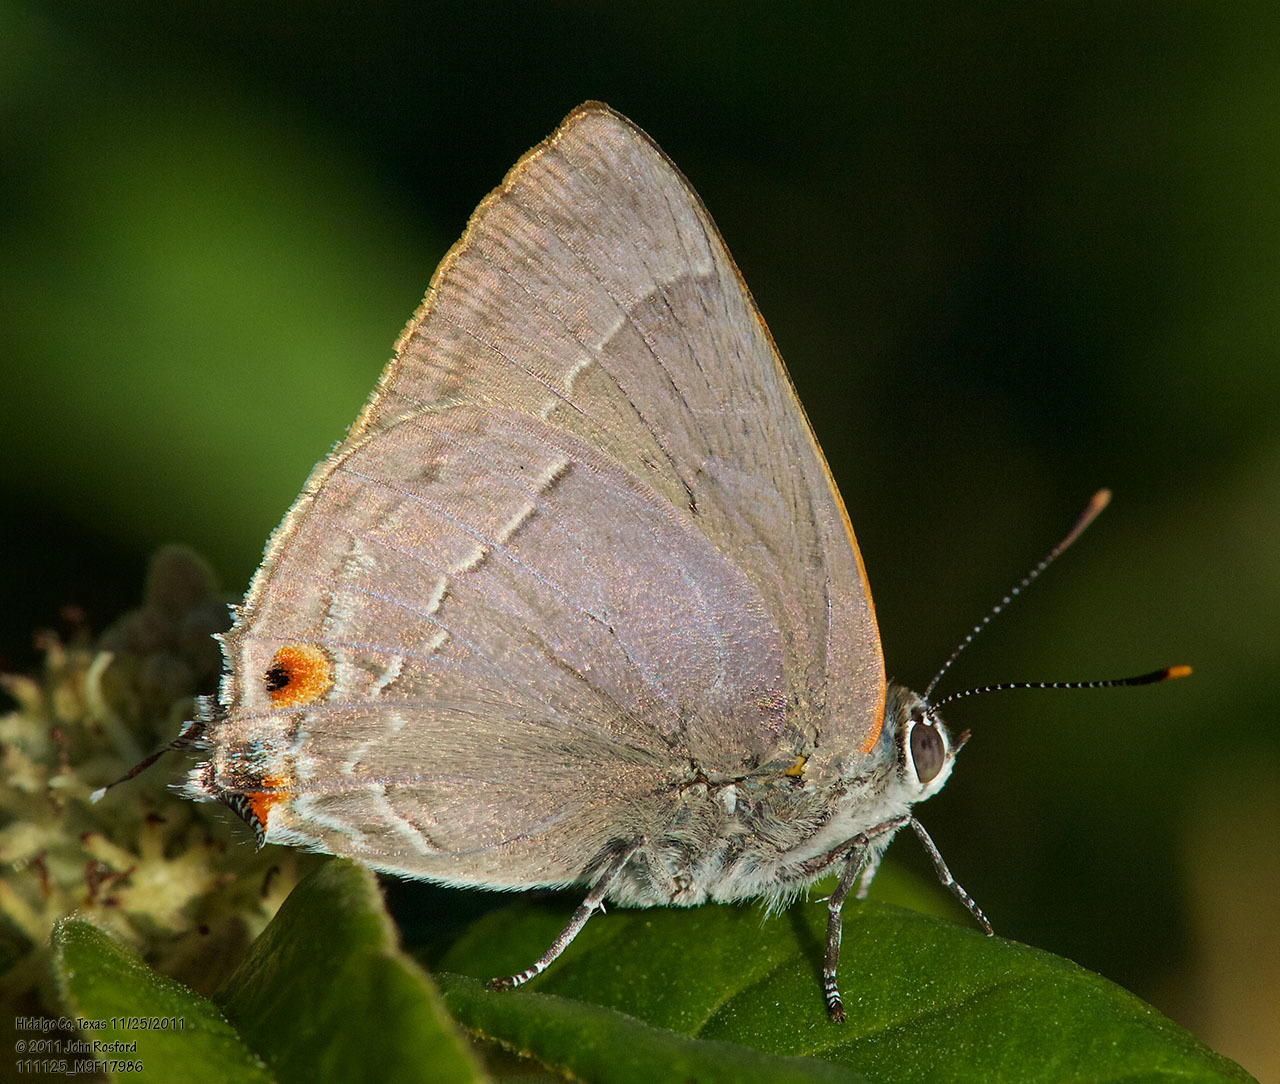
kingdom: Animalia
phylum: Arthropoda
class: Insecta
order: Lepidoptera
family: Lycaenidae
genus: Thecla
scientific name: Thecla marius
